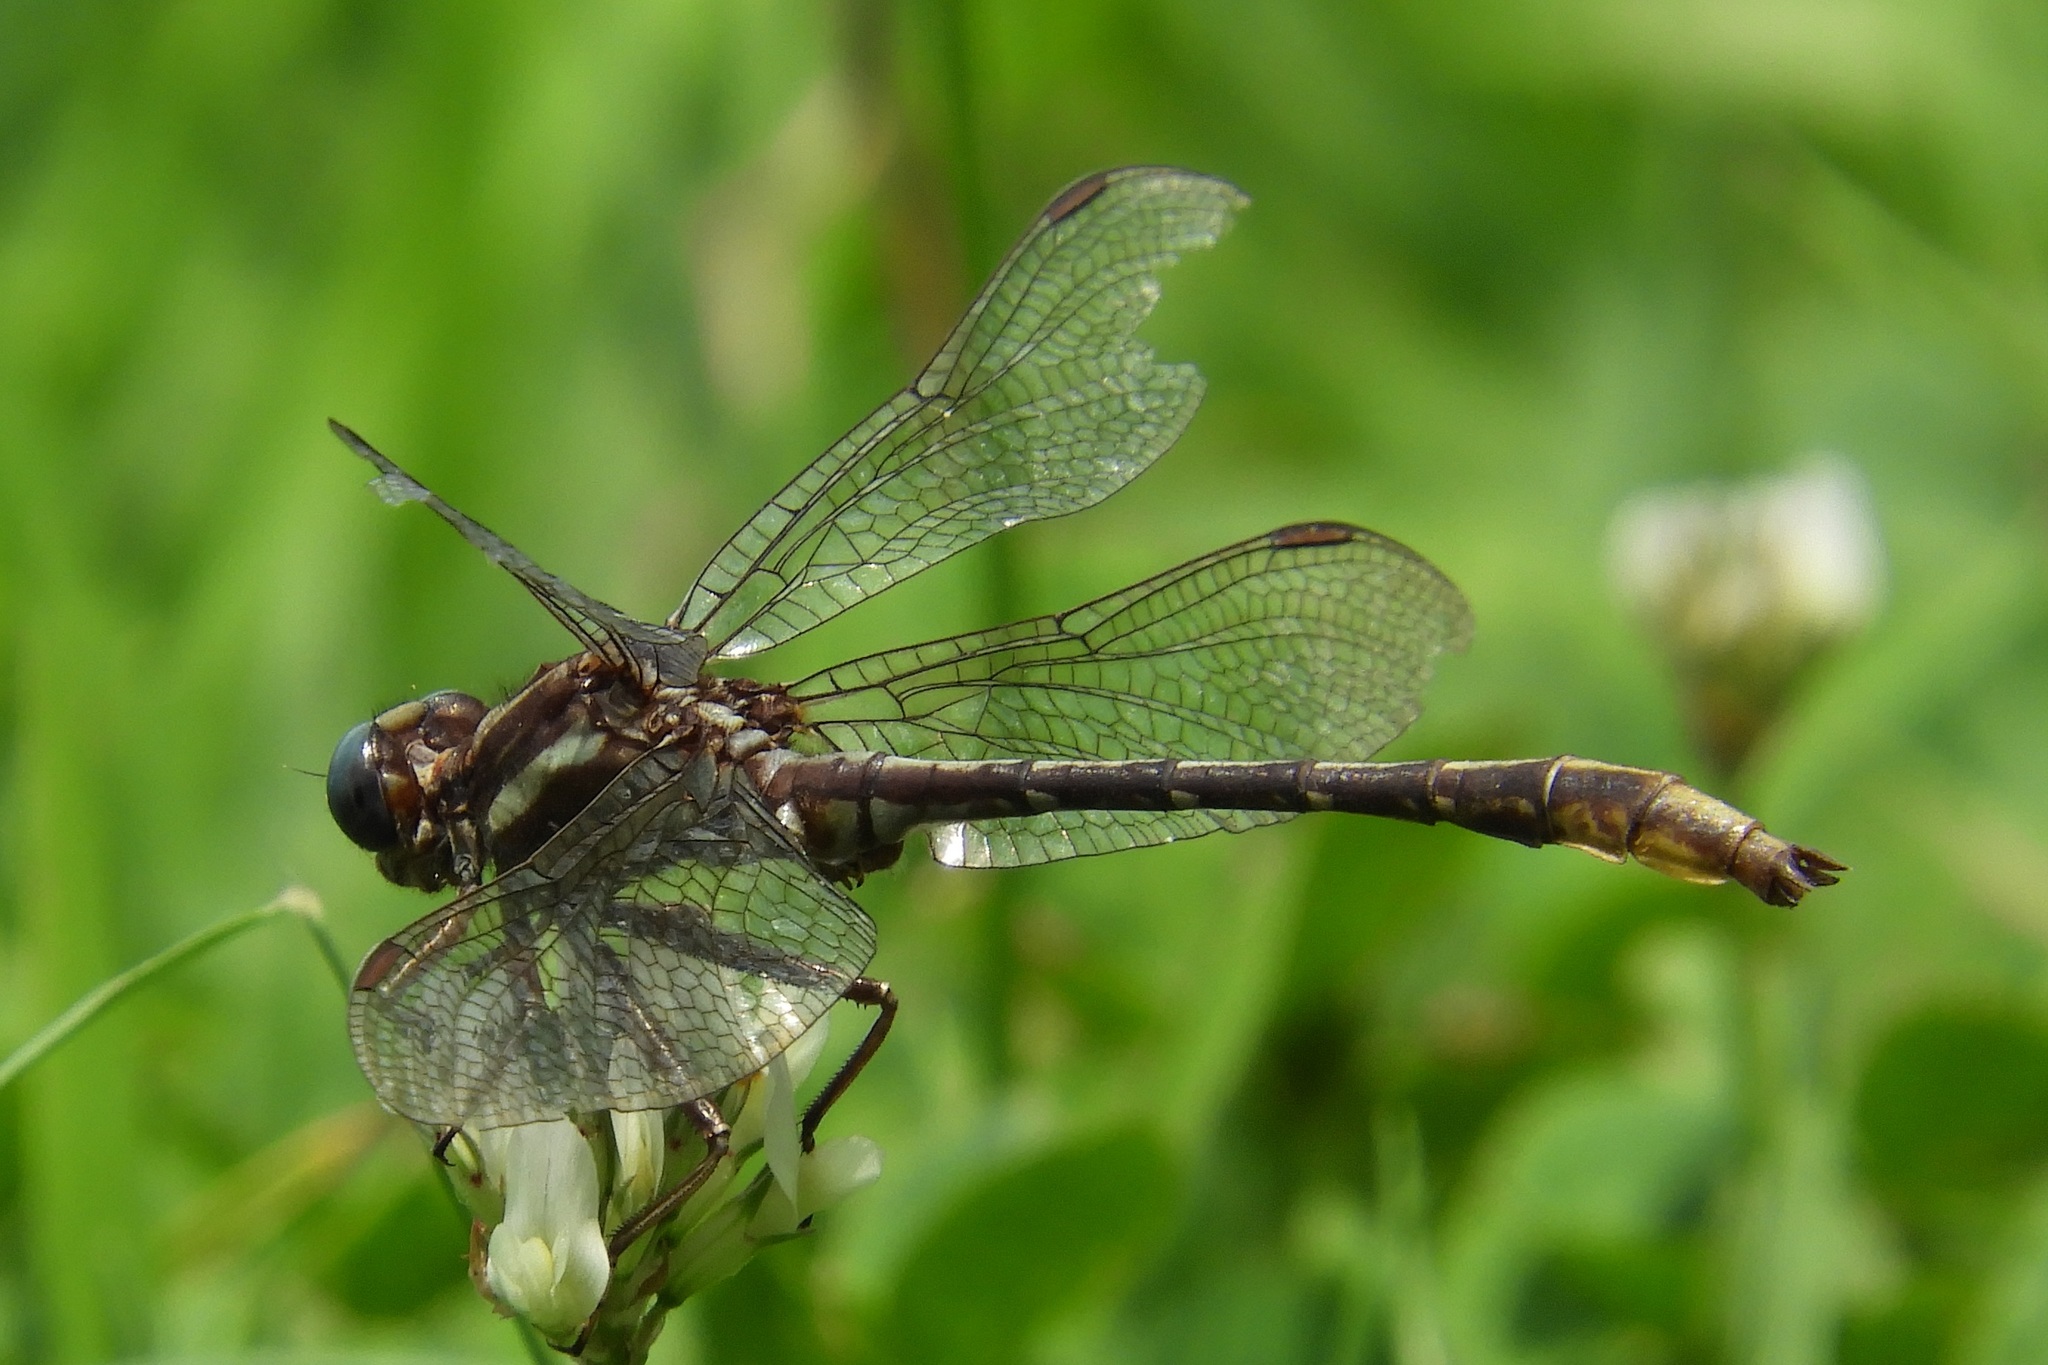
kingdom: Animalia
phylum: Arthropoda
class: Insecta
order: Odonata
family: Gomphidae
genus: Phanogomphus
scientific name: Phanogomphus exilis
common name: Lancet clubtail
